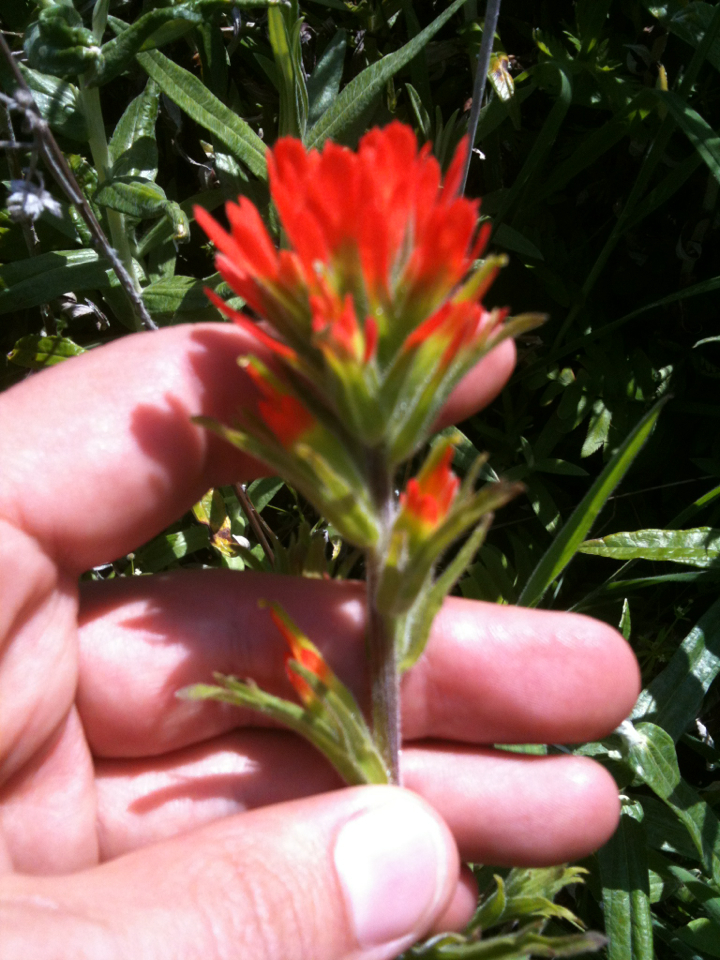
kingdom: Plantae
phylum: Tracheophyta
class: Magnoliopsida
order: Lamiales
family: Orobanchaceae
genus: Castilleja
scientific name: Castilleja affinis
